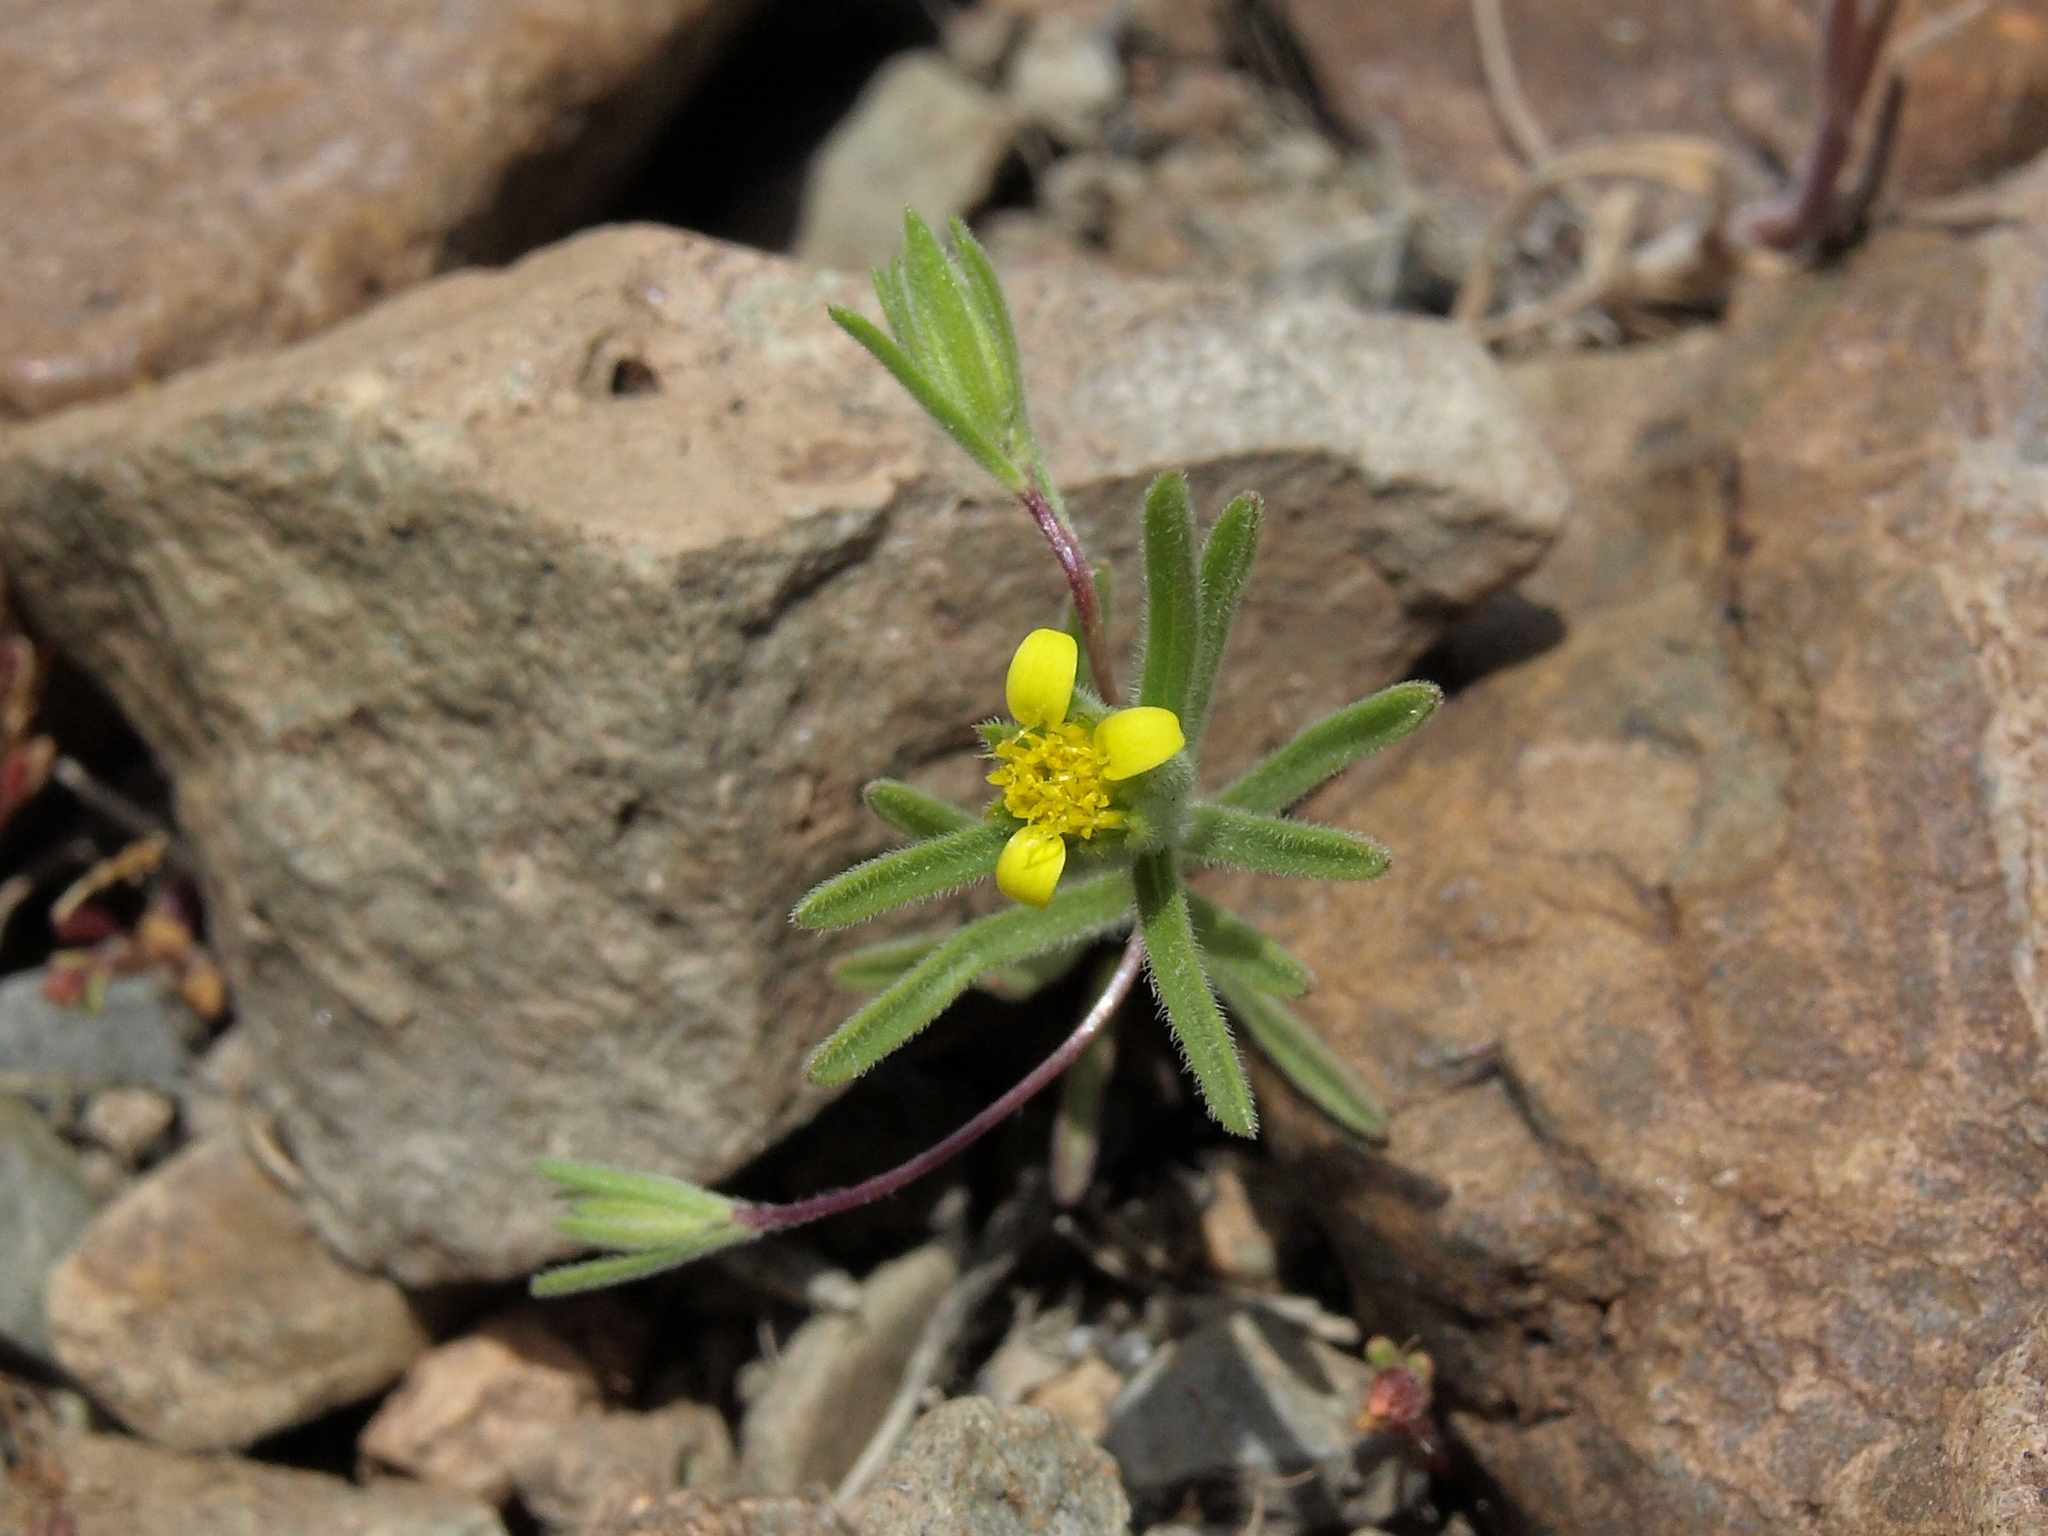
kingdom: Plantae
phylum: Tracheophyta
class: Magnoliopsida
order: Asterales
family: Asteraceae
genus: Rigiopappus
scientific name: Rigiopappus leptocladus
